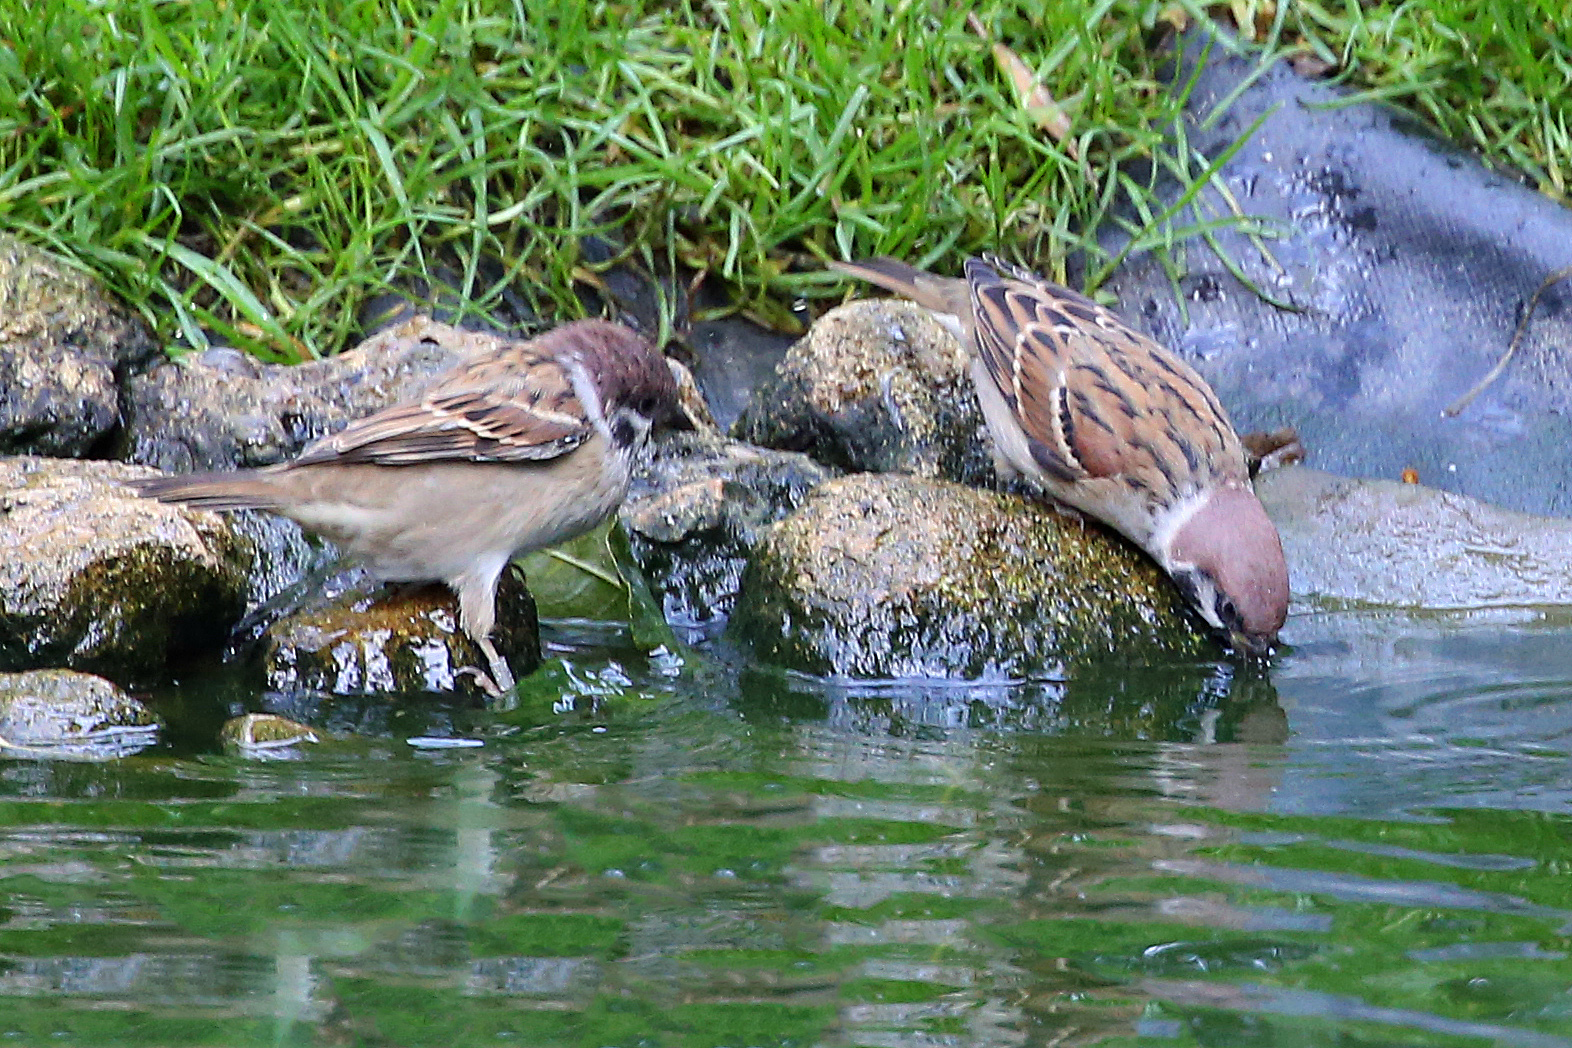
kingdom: Animalia
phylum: Chordata
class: Aves
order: Passeriformes
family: Passeridae
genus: Passer
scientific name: Passer montanus
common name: Eurasian tree sparrow
